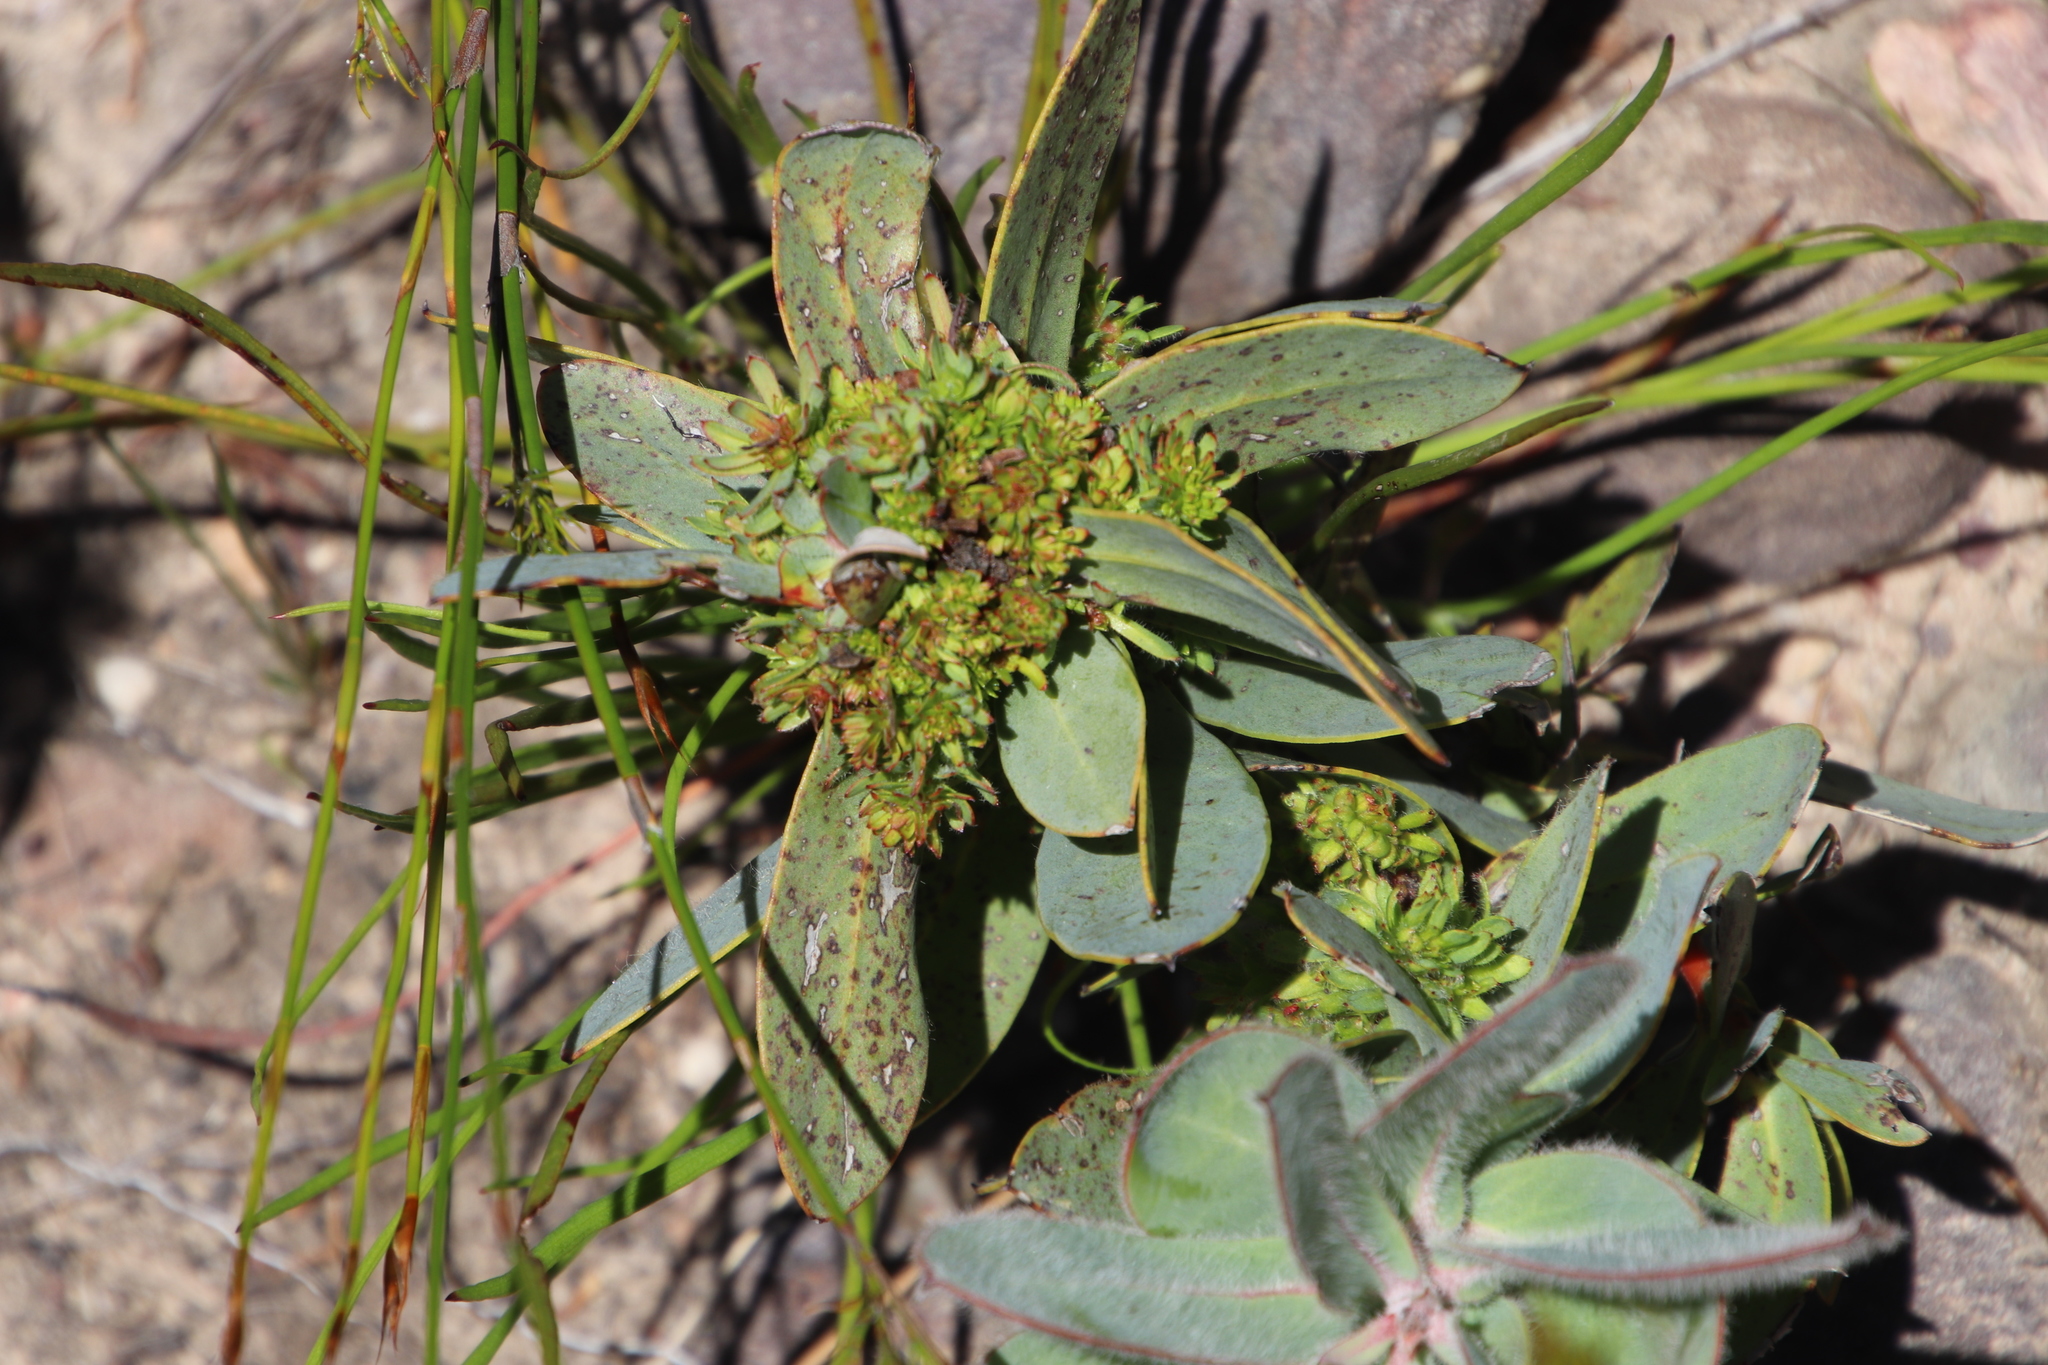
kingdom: Plantae
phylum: Tracheophyta
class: Magnoliopsida
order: Proteales
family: Proteaceae
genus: Protea
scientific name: Protea laurifolia
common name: Grey-leaf sugarbsh
